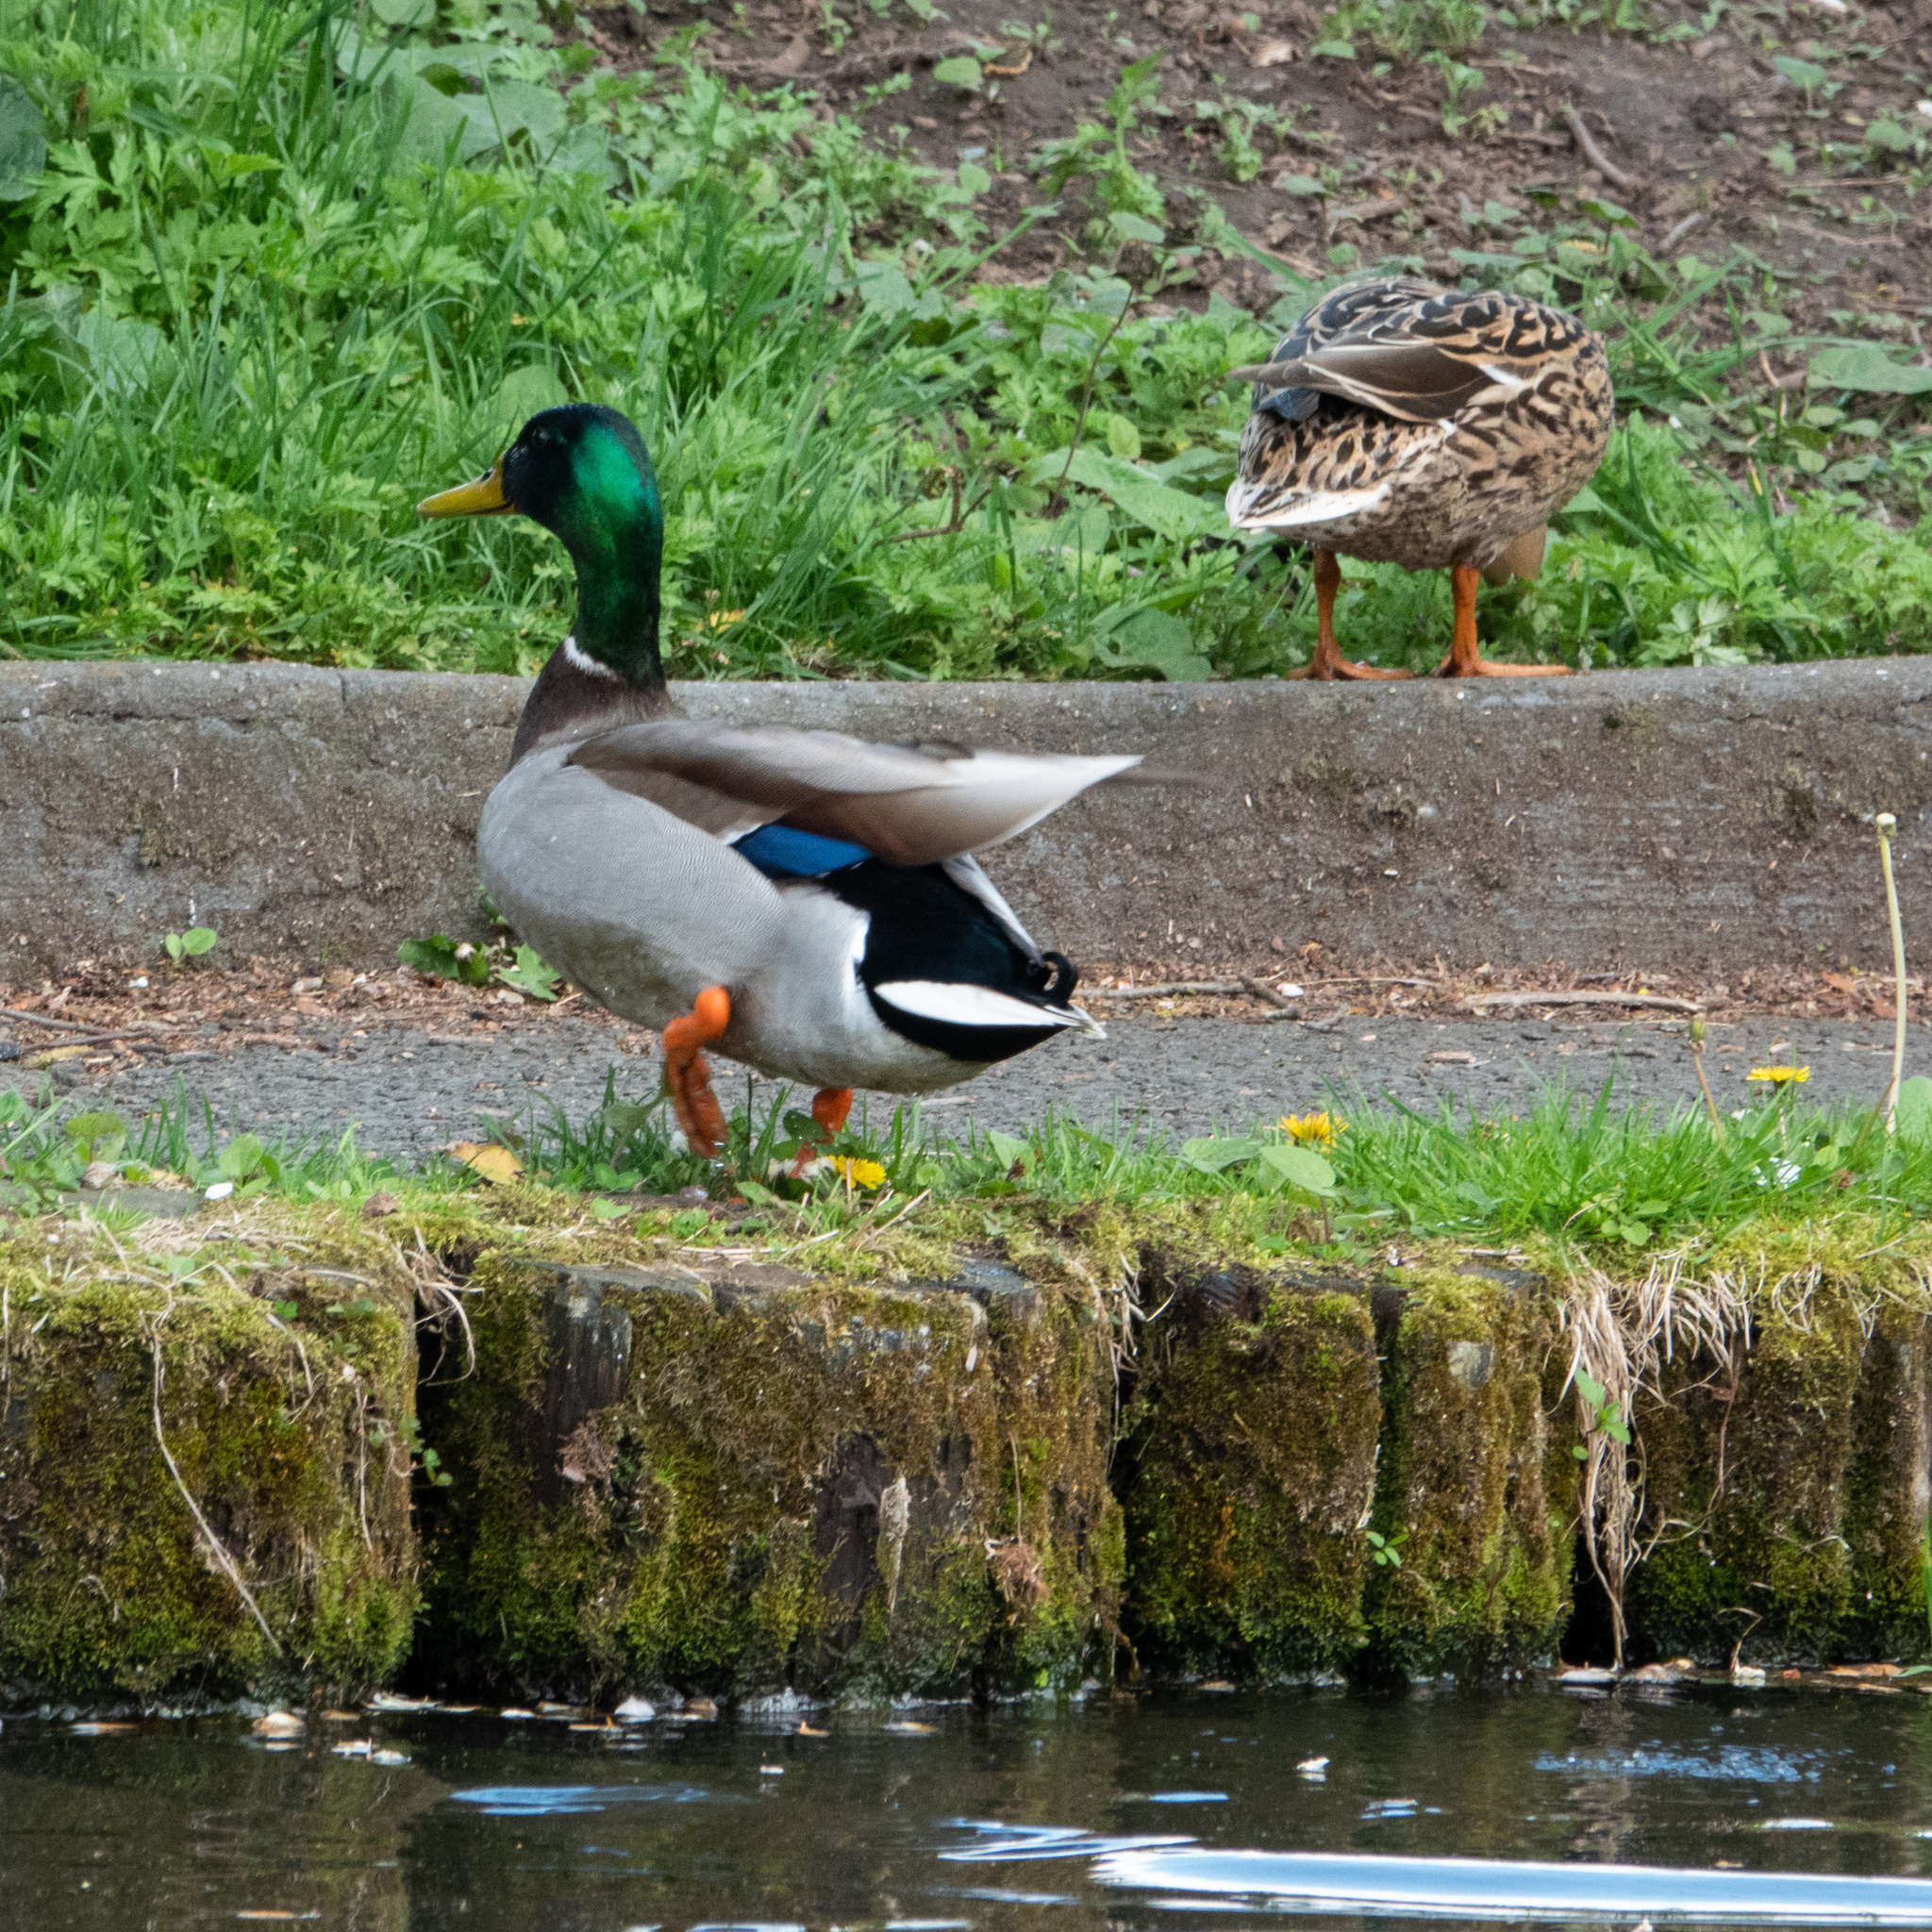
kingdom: Animalia
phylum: Chordata
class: Aves
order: Anseriformes
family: Anatidae
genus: Anas
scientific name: Anas platyrhynchos
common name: Mallard
